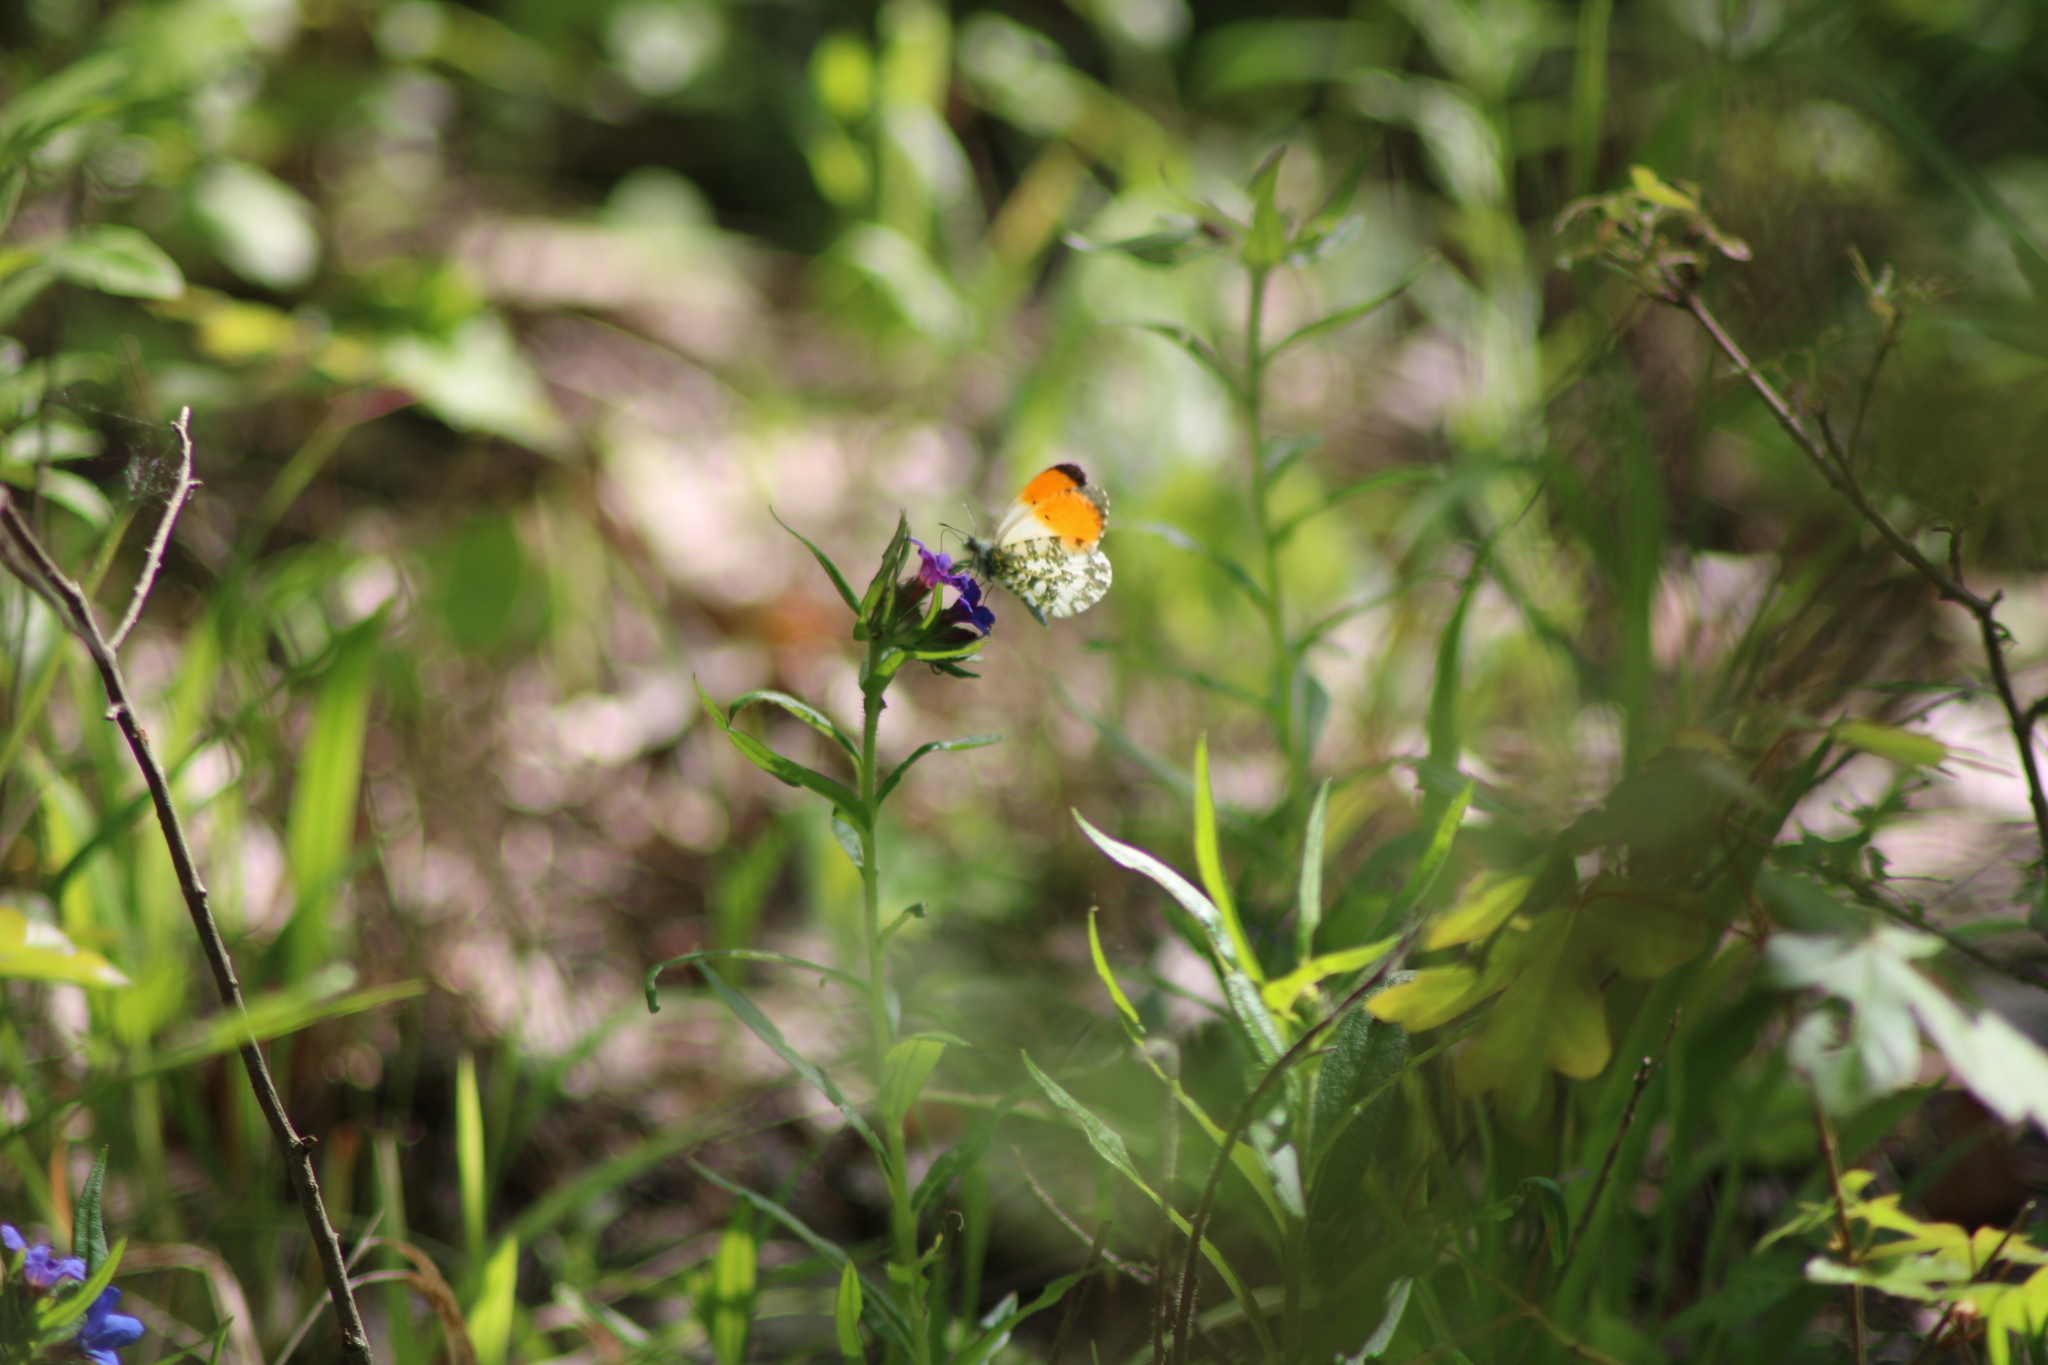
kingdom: Animalia
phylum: Arthropoda
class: Insecta
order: Lepidoptera
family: Pieridae
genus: Anthocharis
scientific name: Anthocharis cardamines
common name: Orange-tip
